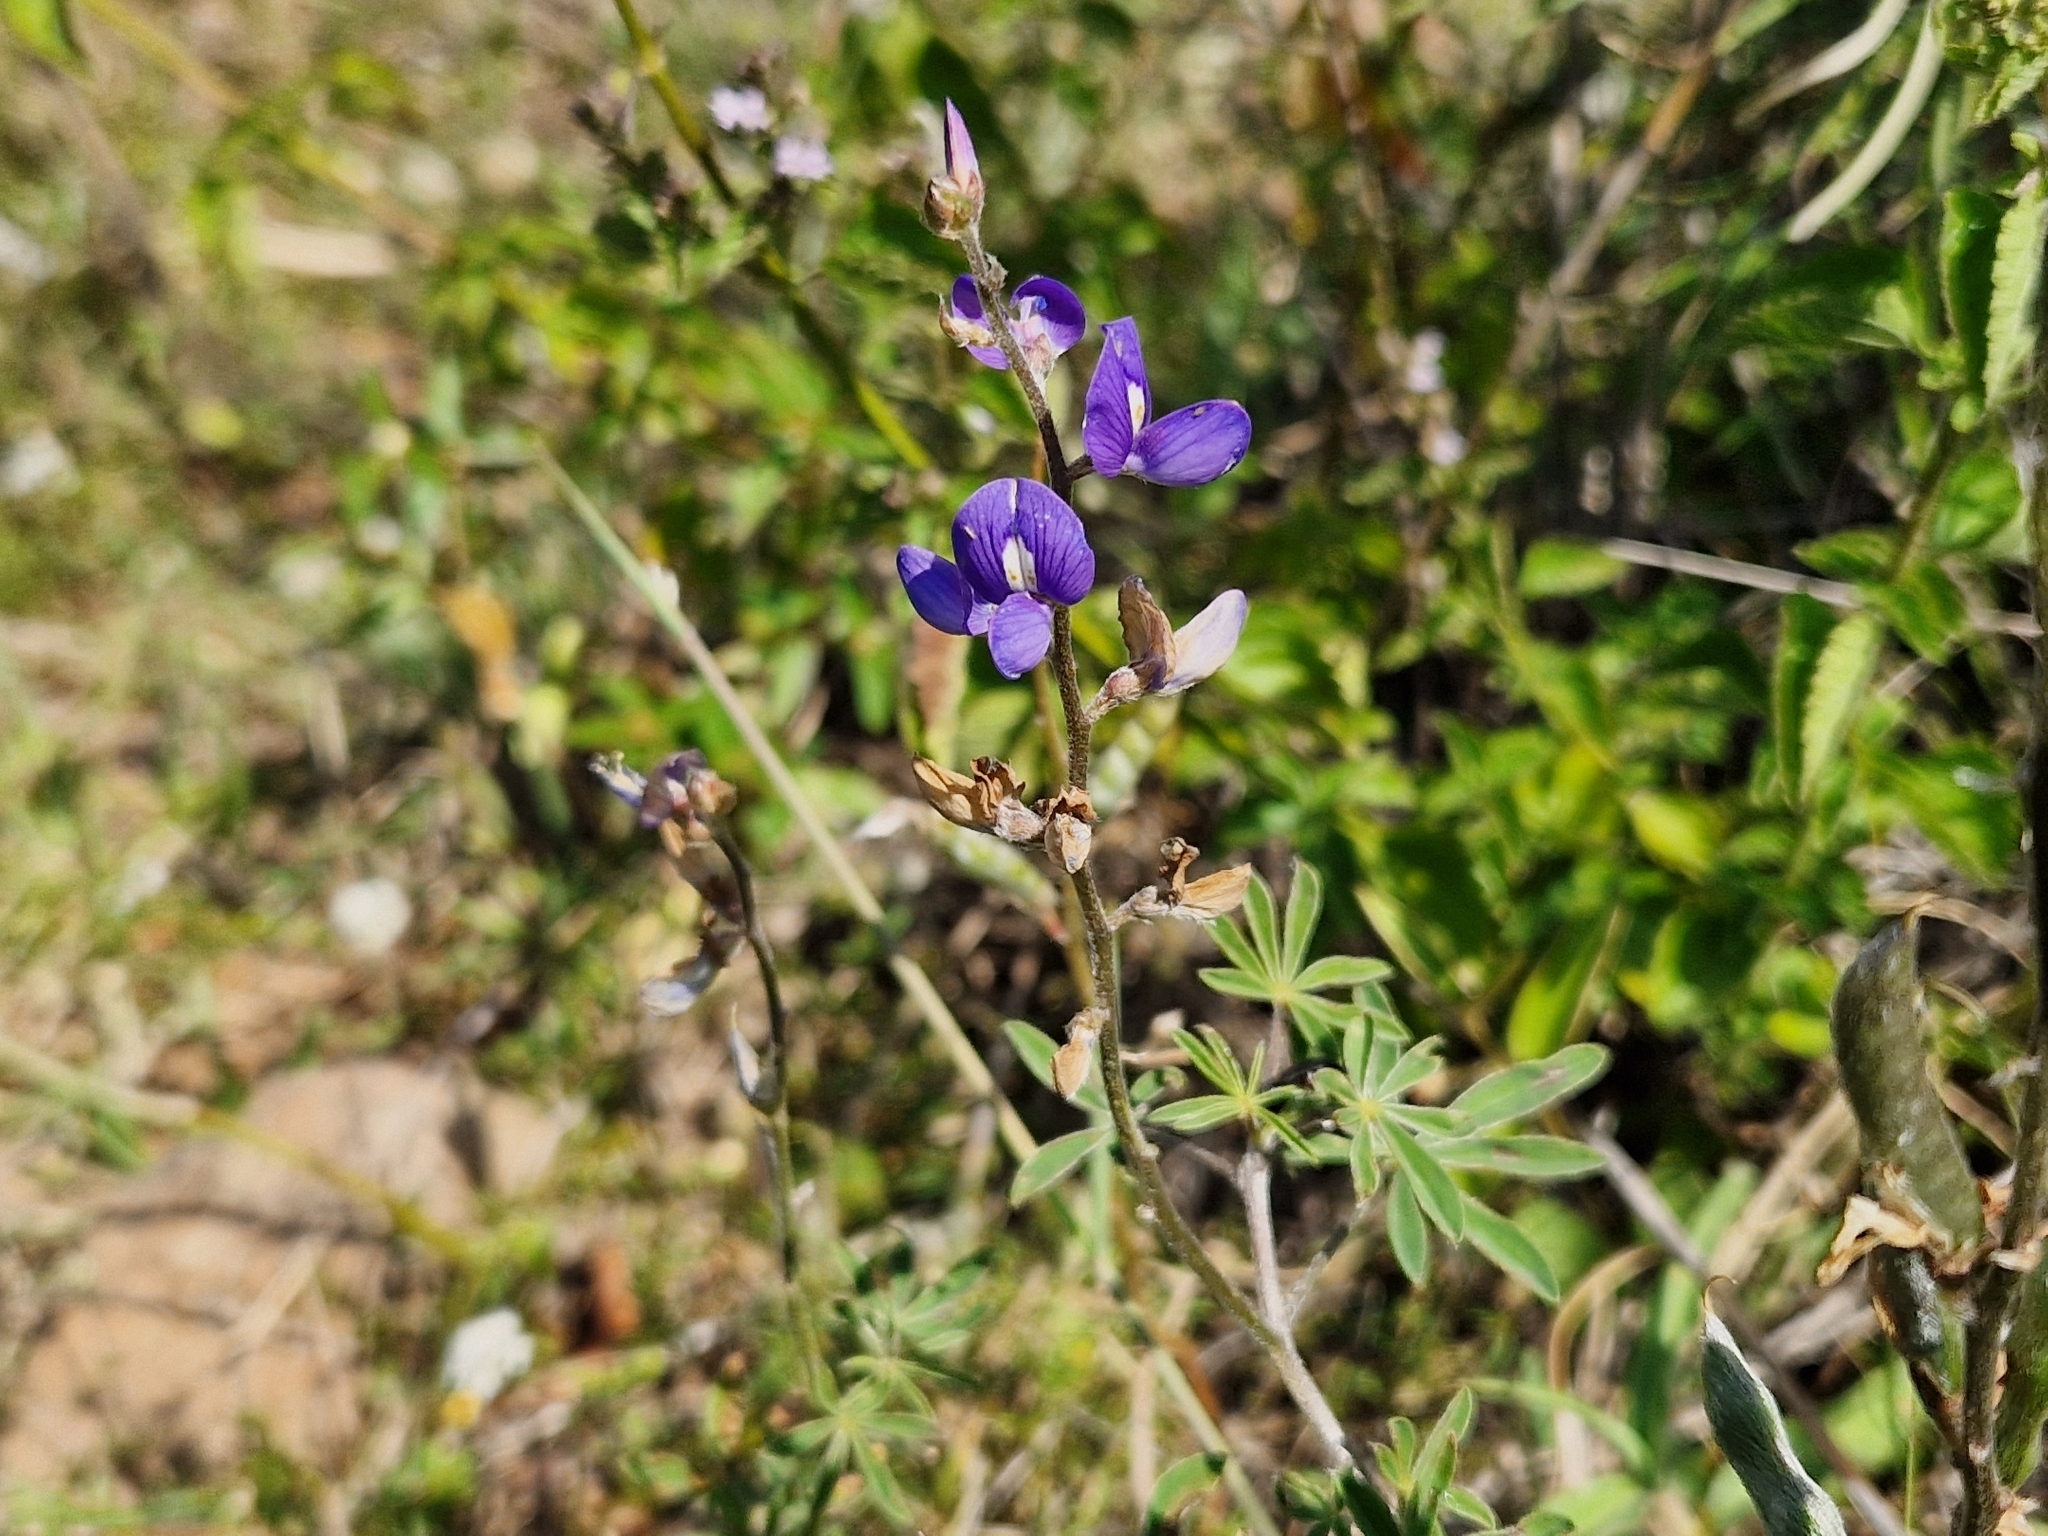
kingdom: Plantae
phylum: Tracheophyta
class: Magnoliopsida
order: Fabales
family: Fabaceae
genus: Lupinus
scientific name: Lupinus gibertianus
